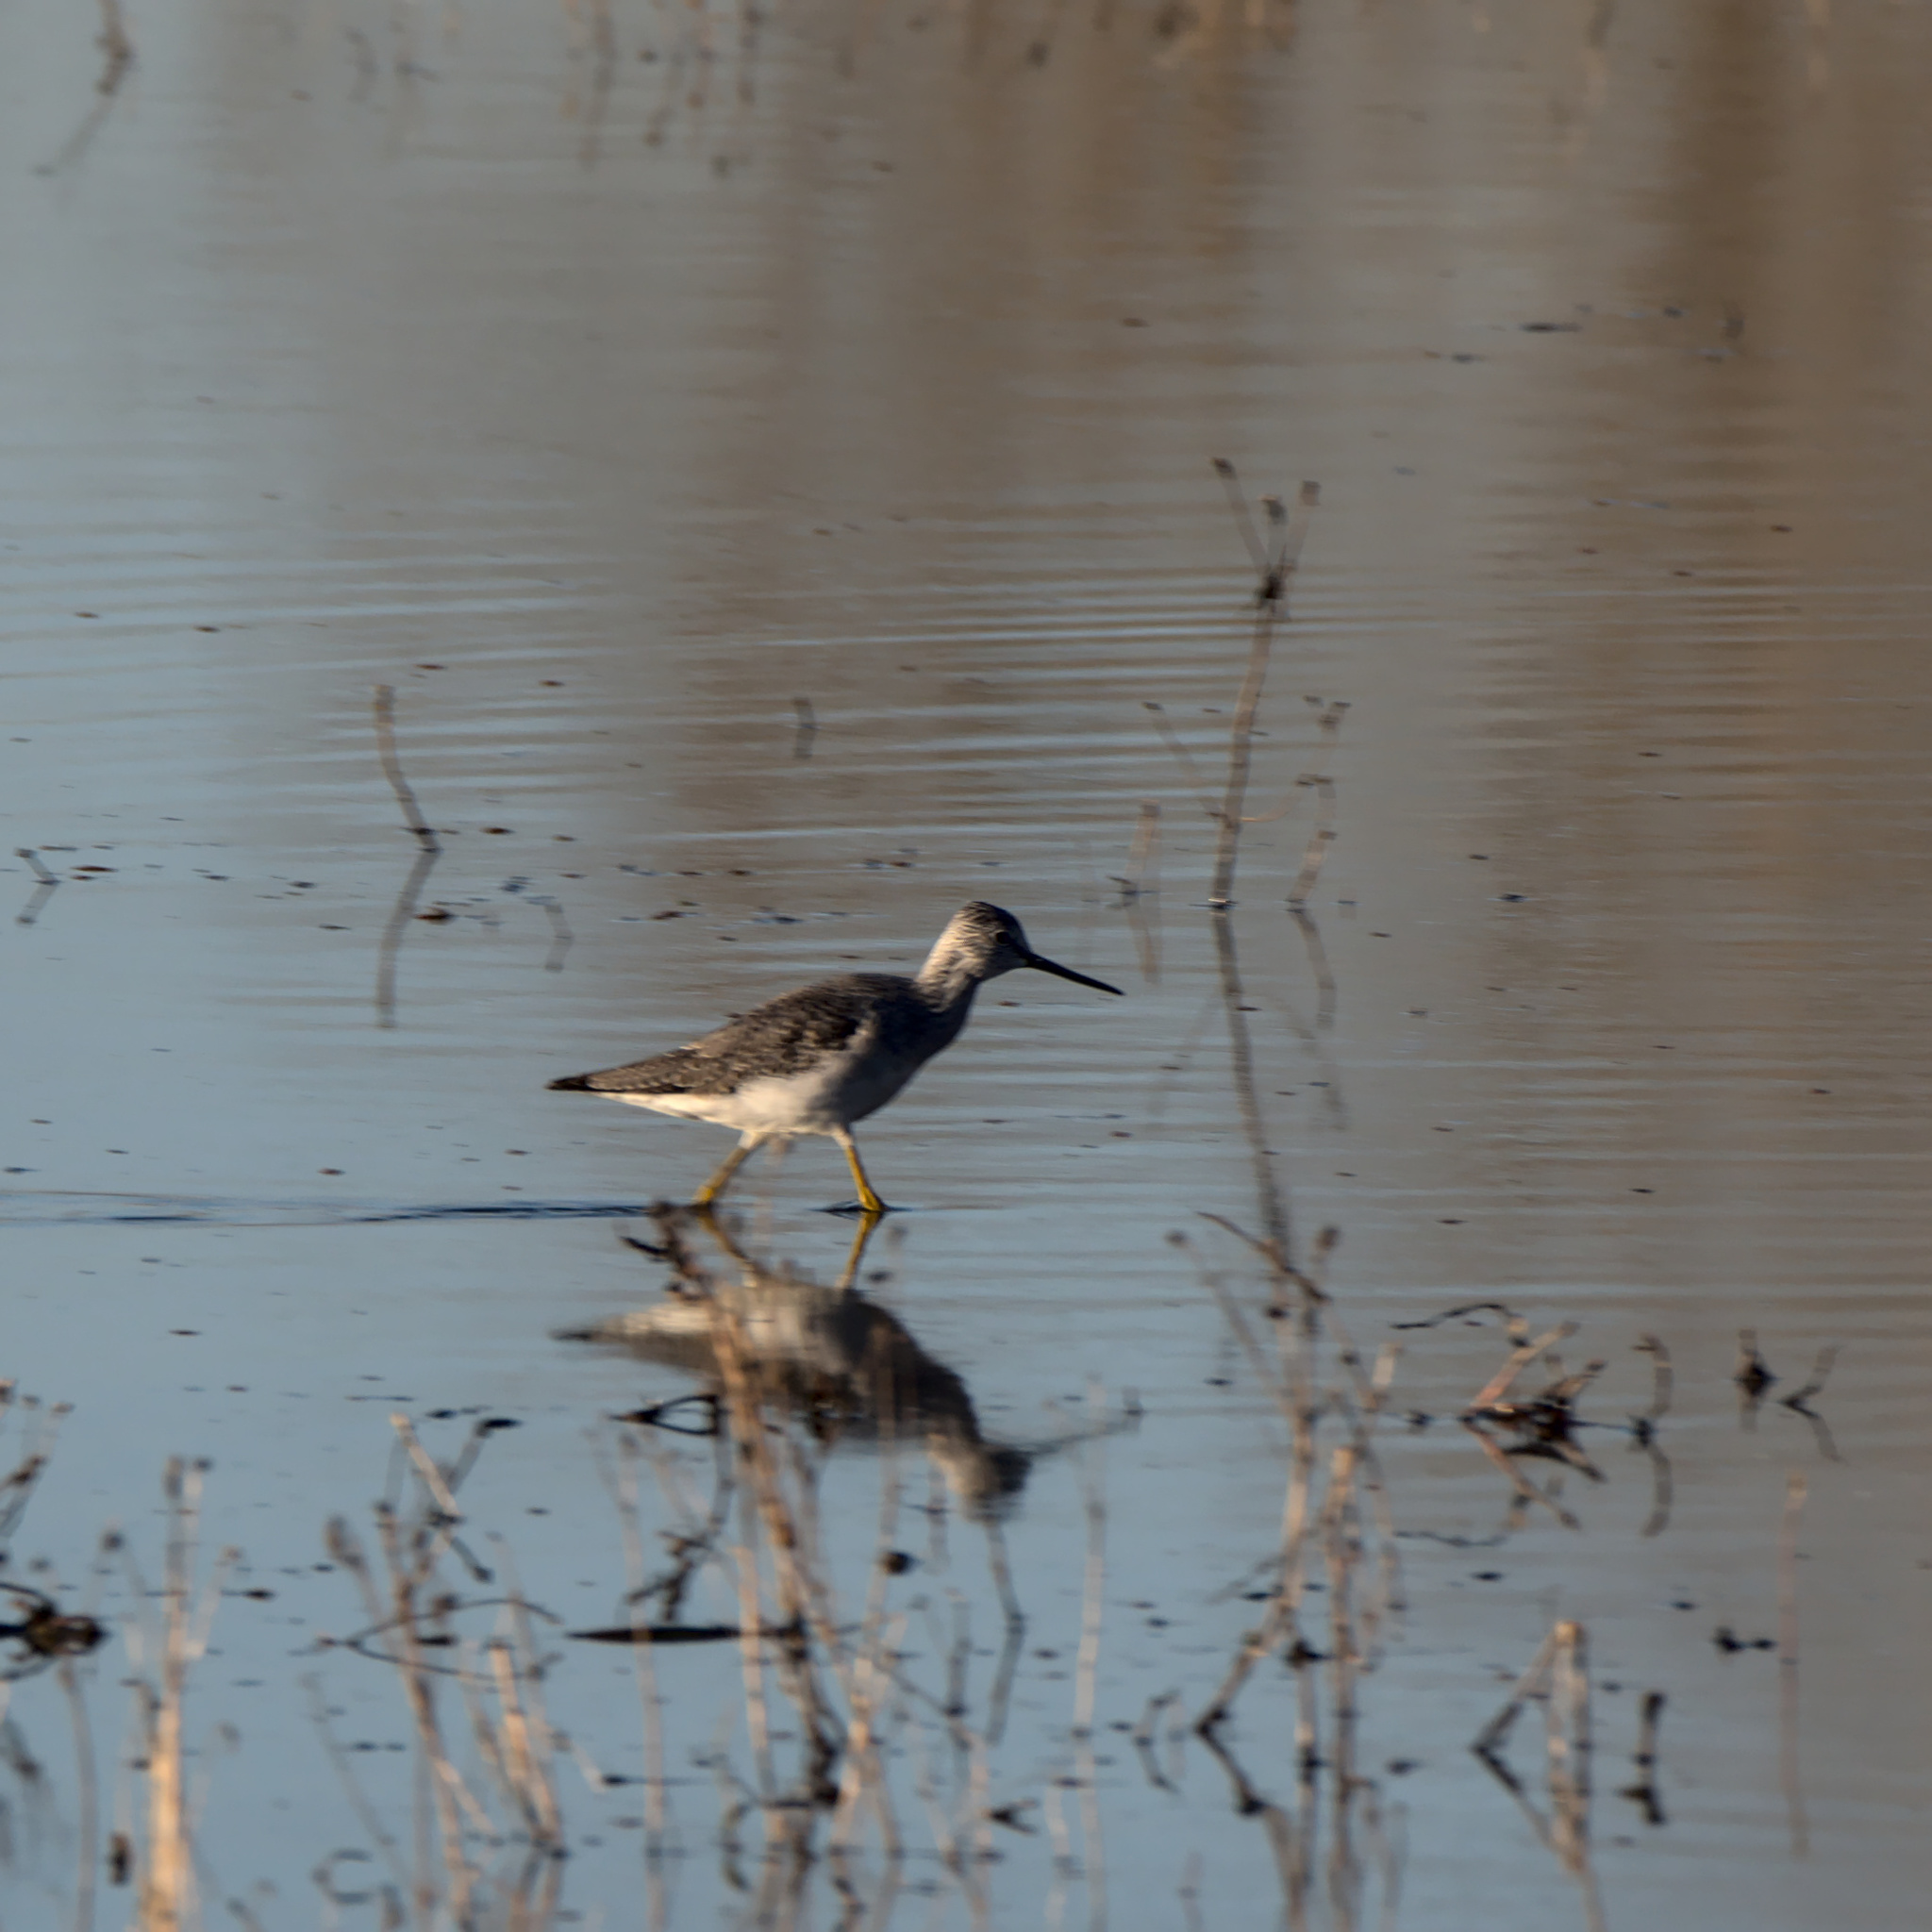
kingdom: Animalia
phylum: Chordata
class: Aves
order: Charadriiformes
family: Scolopacidae
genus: Tringa
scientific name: Tringa melanoleuca
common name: Greater yellowlegs
